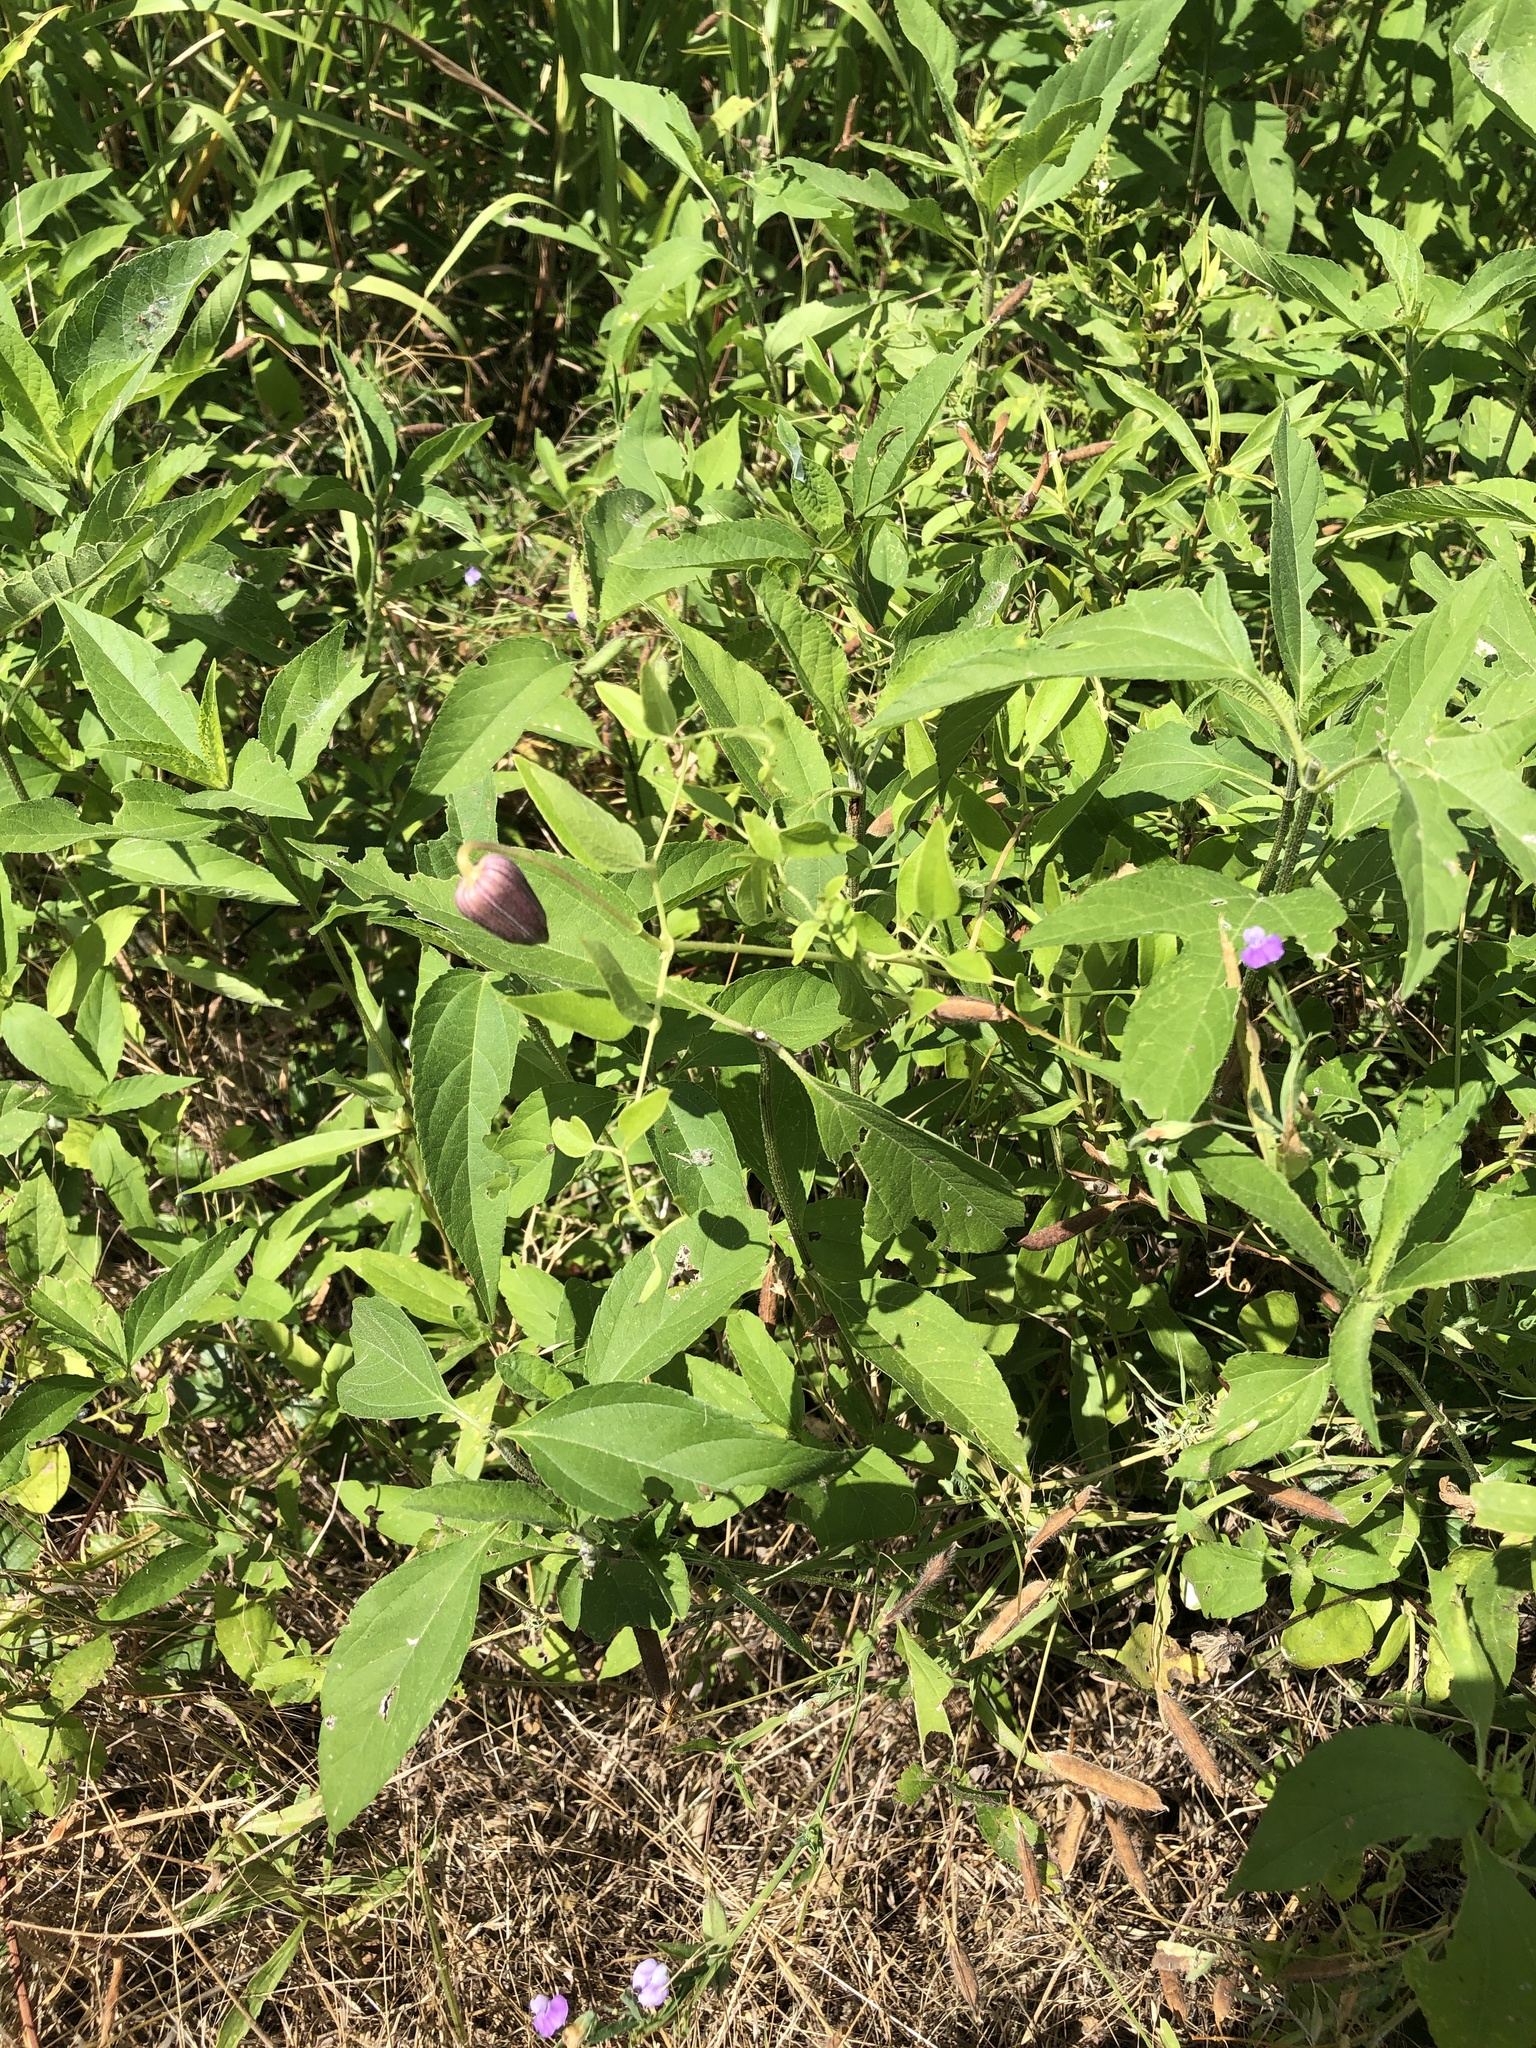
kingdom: Plantae
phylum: Tracheophyta
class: Magnoliopsida
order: Ranunculales
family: Ranunculaceae
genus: Clematis
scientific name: Clematis pitcheri
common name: Bellflower clematis
